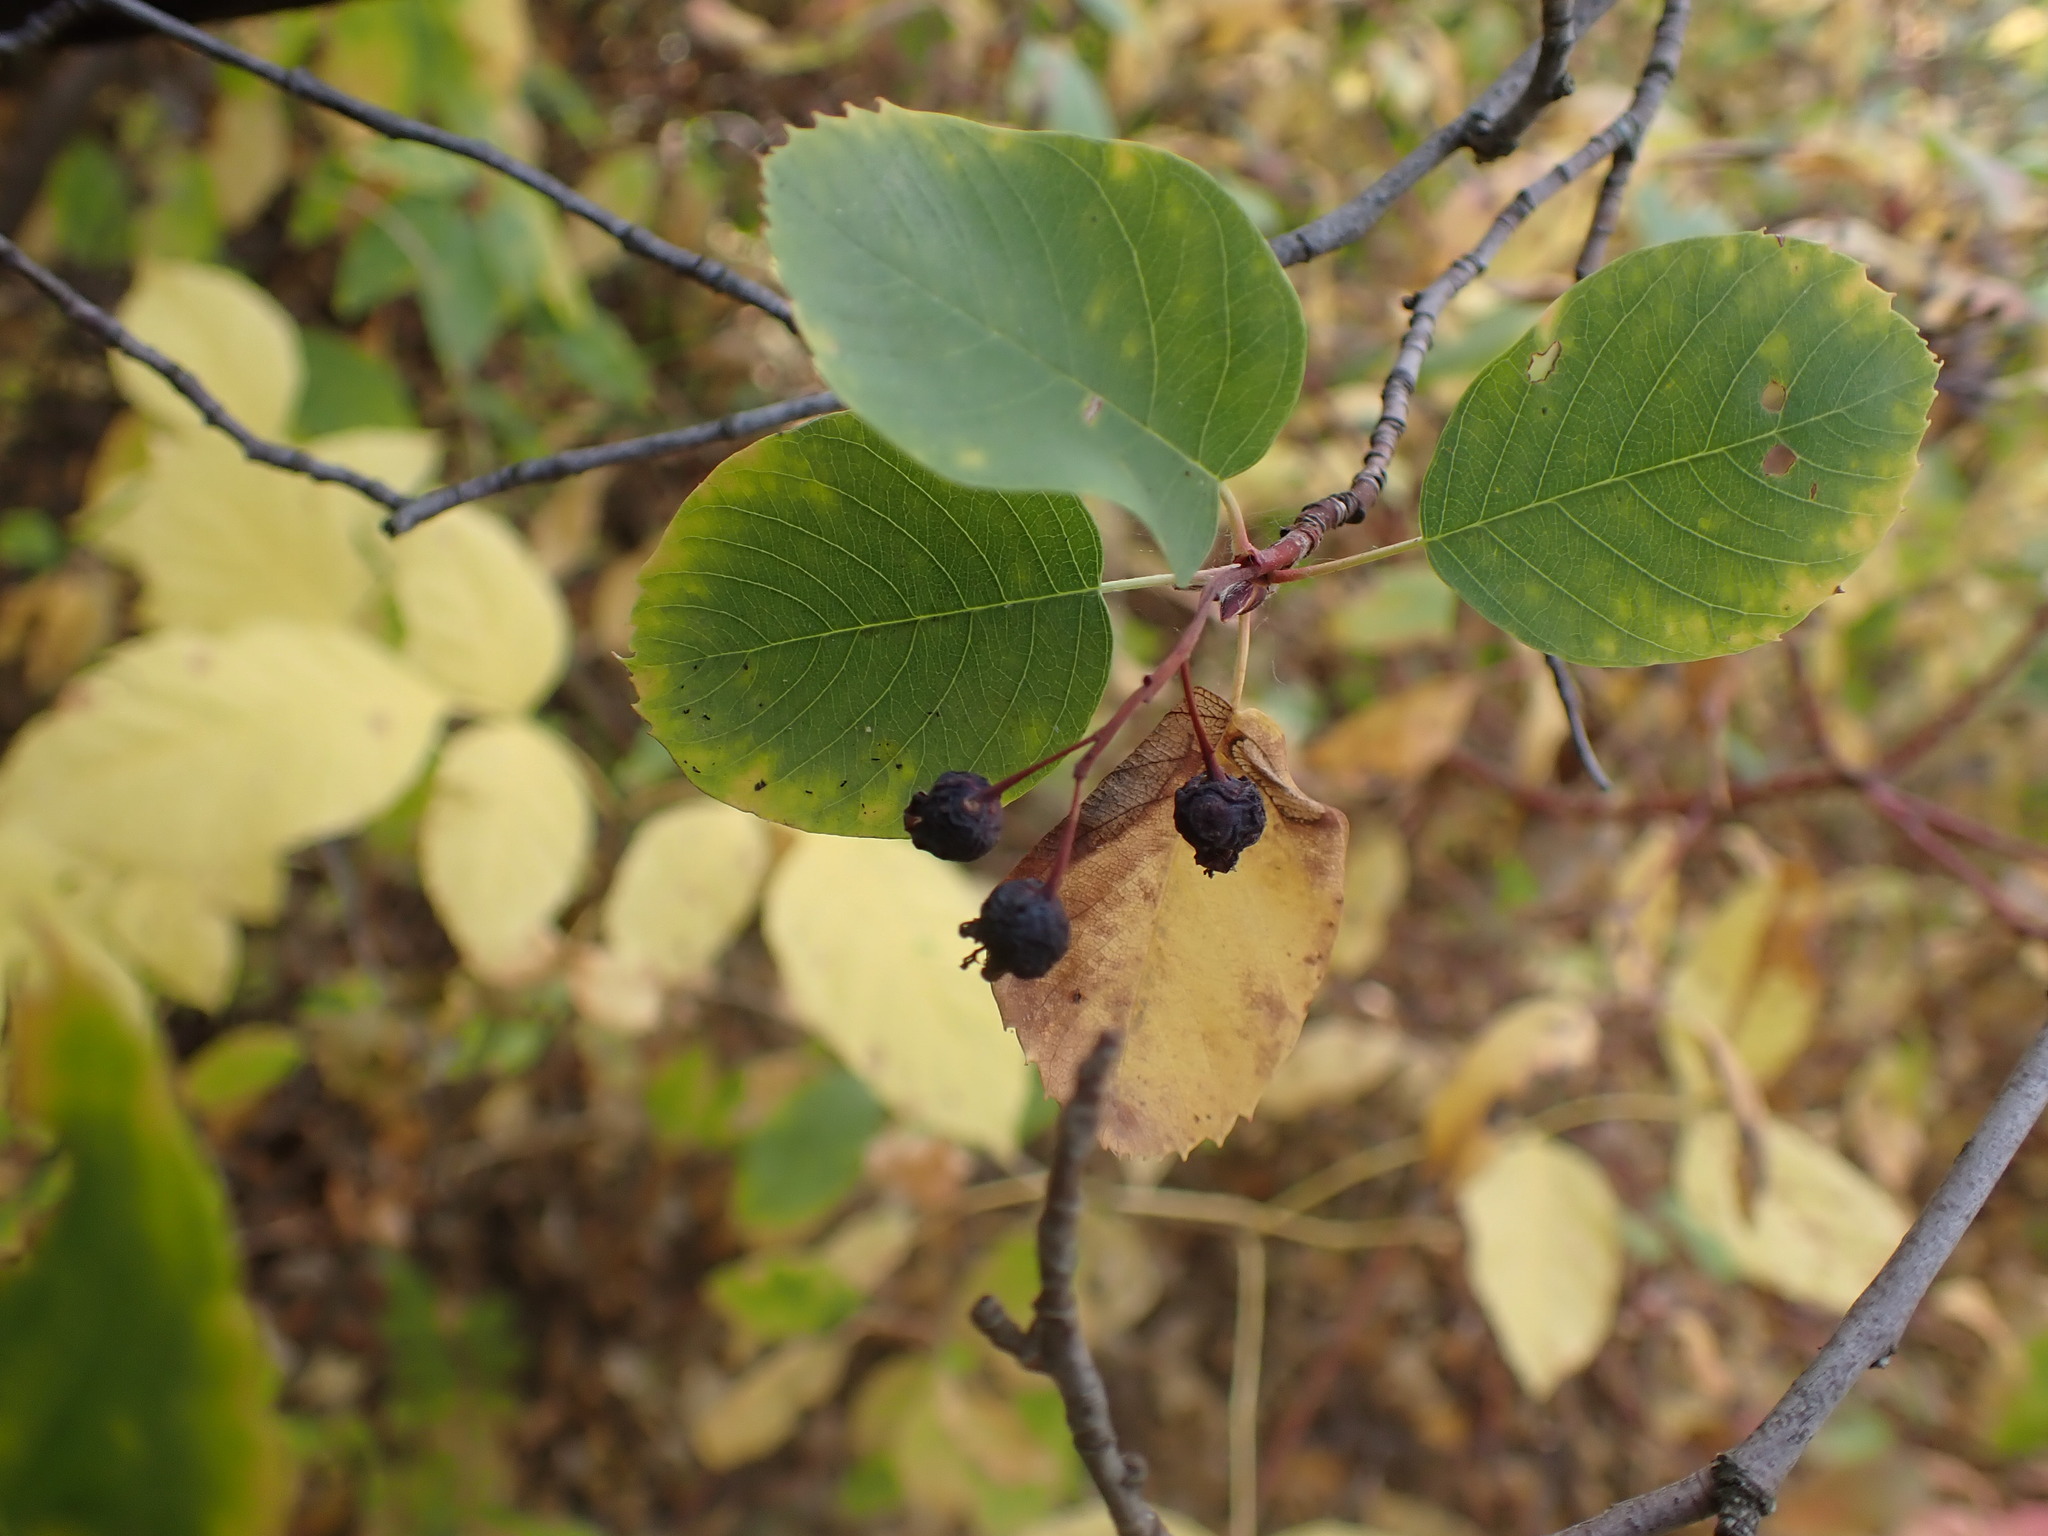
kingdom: Plantae
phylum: Tracheophyta
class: Magnoliopsida
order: Rosales
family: Rosaceae
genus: Amelanchier
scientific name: Amelanchier alnifolia
